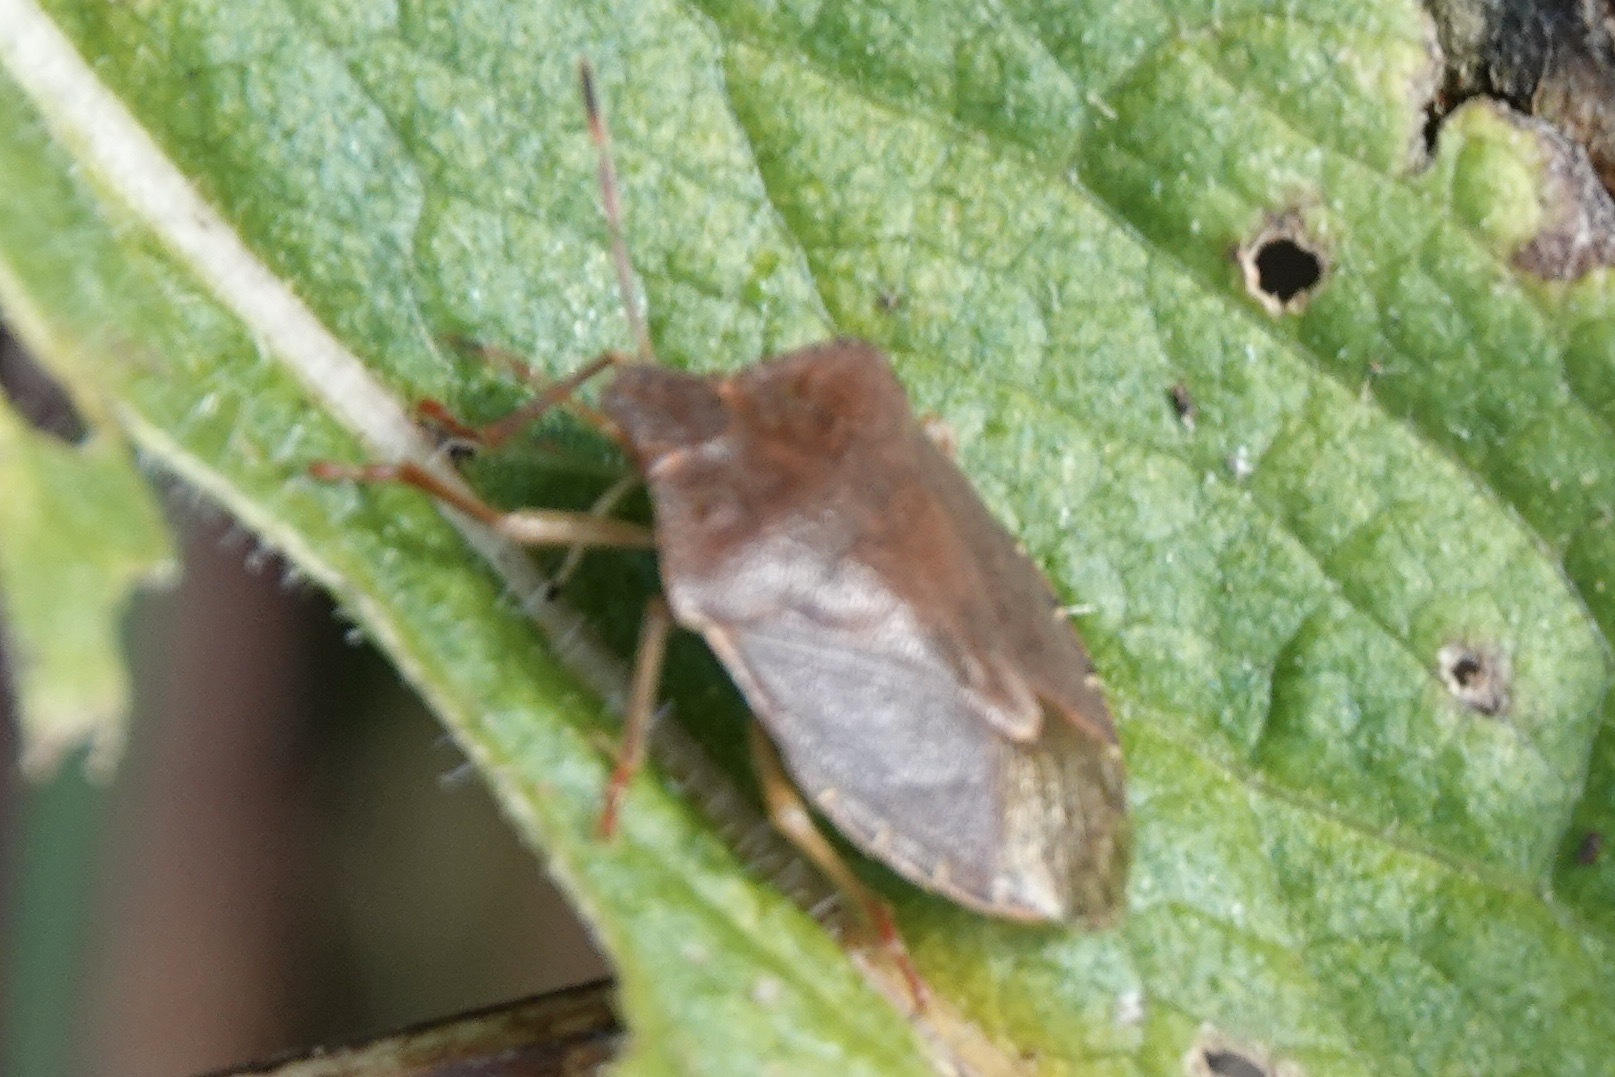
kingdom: Animalia
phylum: Arthropoda
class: Insecta
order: Hemiptera
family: Pentatomidae
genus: Palomena
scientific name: Palomena prasina
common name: Green shieldbug
